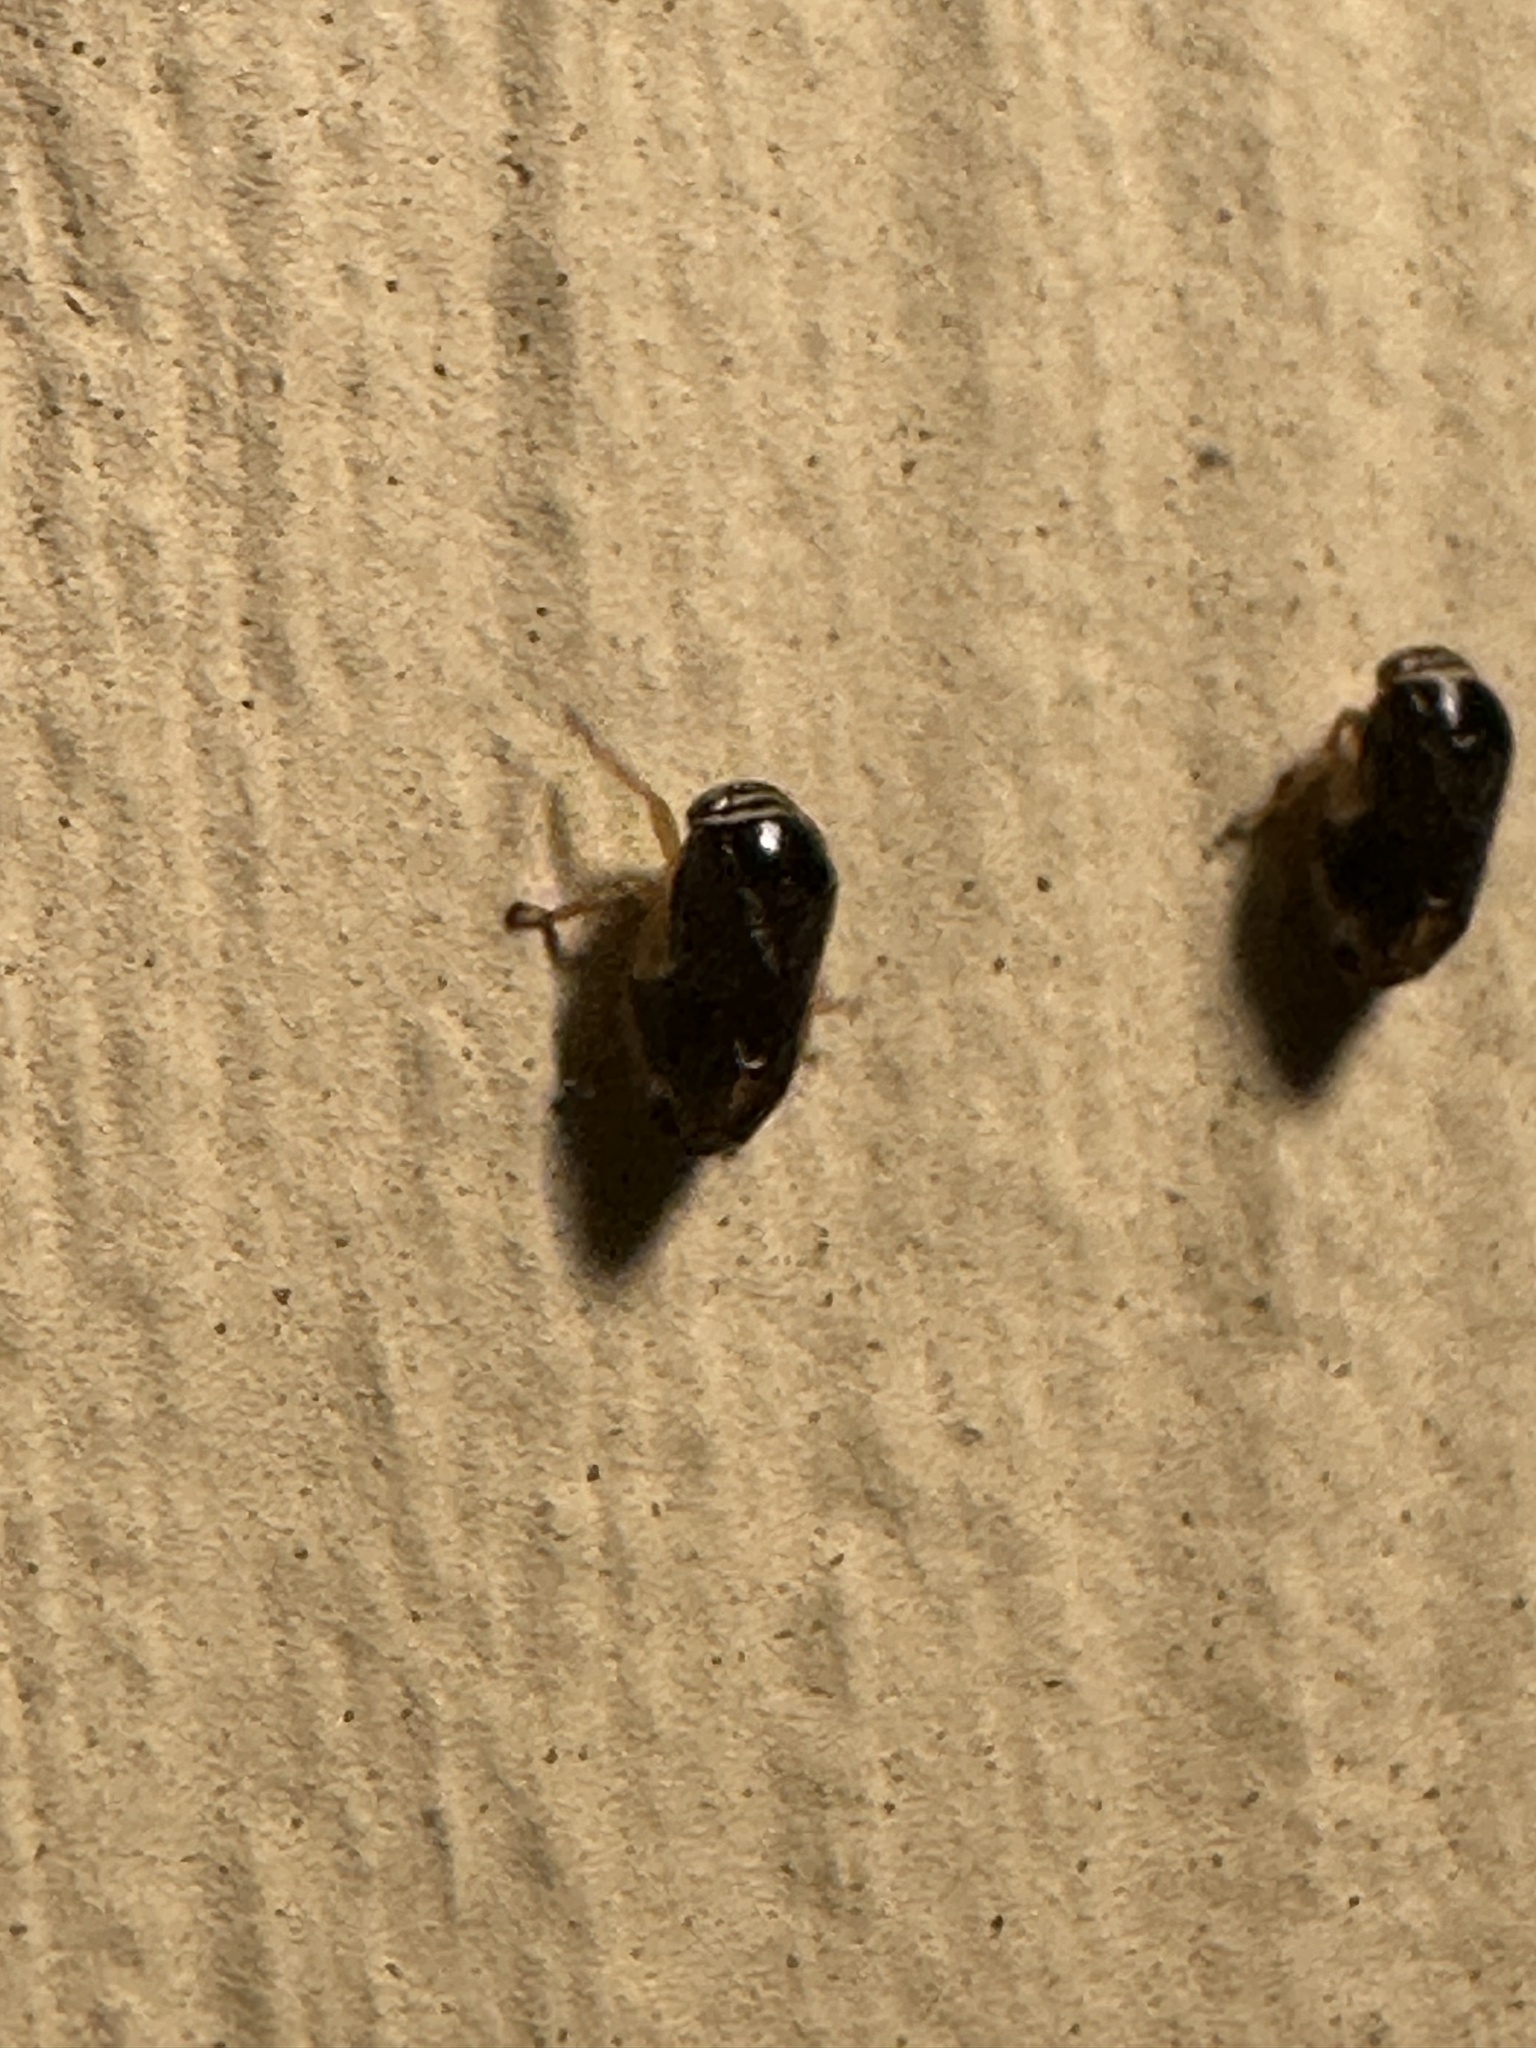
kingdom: Animalia
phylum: Arthropoda
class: Insecta
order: Hemiptera
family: Clastopteridae
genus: Clastoptera
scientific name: Clastoptera testacea
